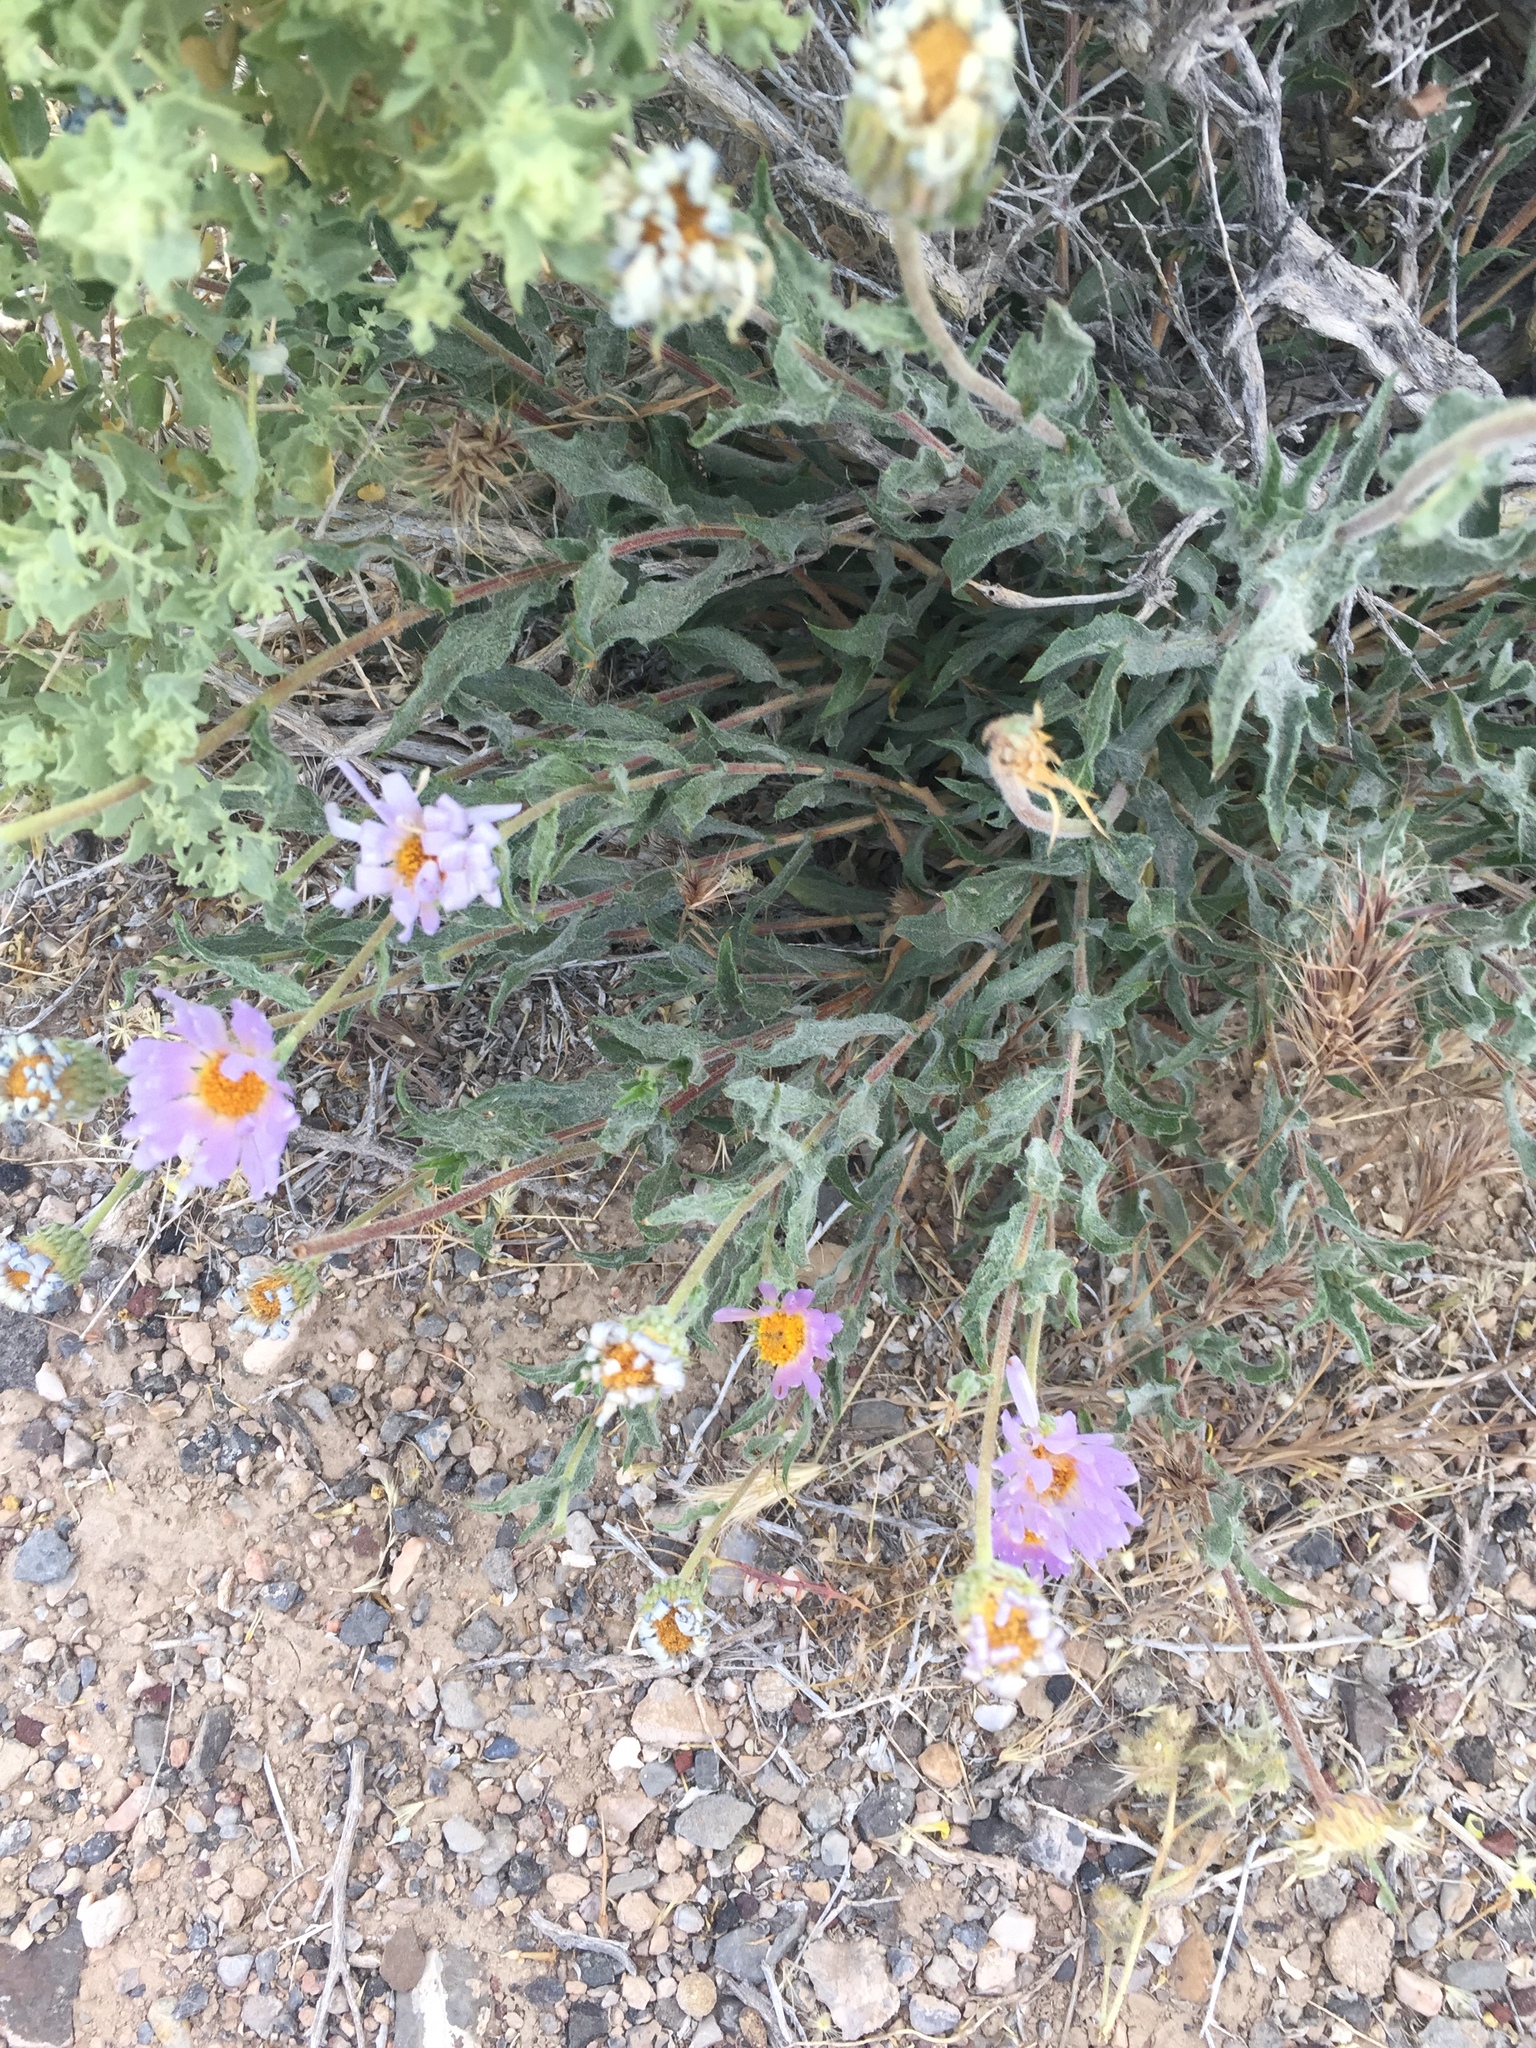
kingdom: Plantae
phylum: Tracheophyta
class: Magnoliopsida
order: Asterales
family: Asteraceae
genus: Xylorhiza
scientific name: Xylorhiza tortifolia
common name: Hurt-leaf woody-aster
